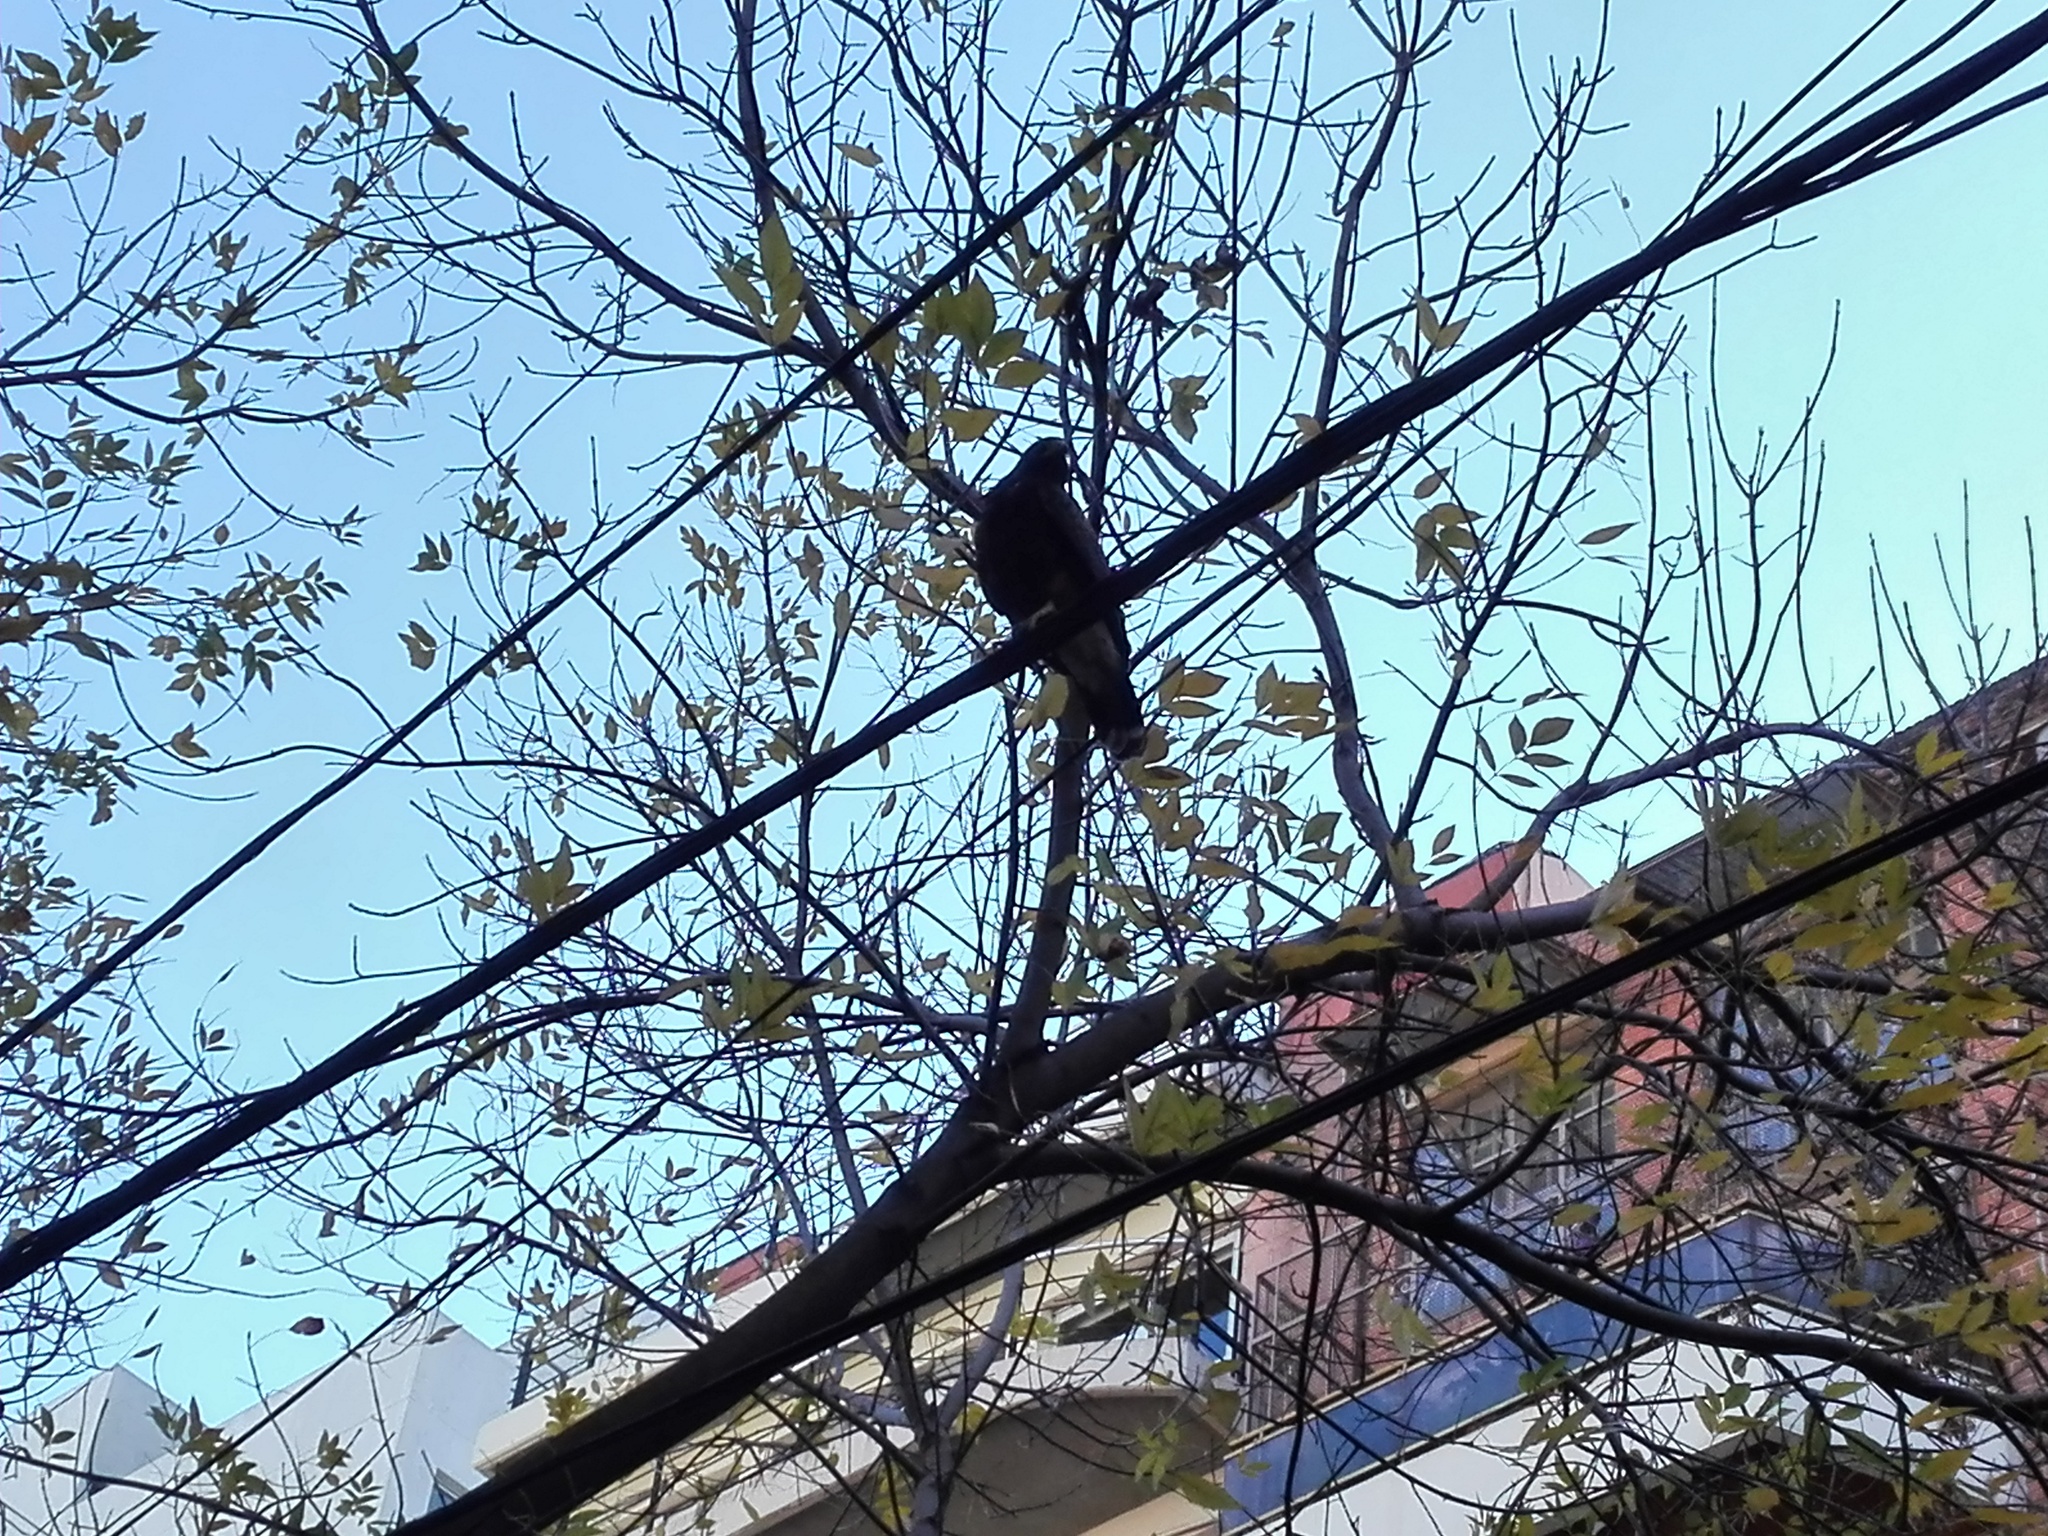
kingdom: Animalia
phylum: Chordata
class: Aves
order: Accipitriformes
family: Accipitridae
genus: Parabuteo
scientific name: Parabuteo unicinctus
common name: Harris's hawk
